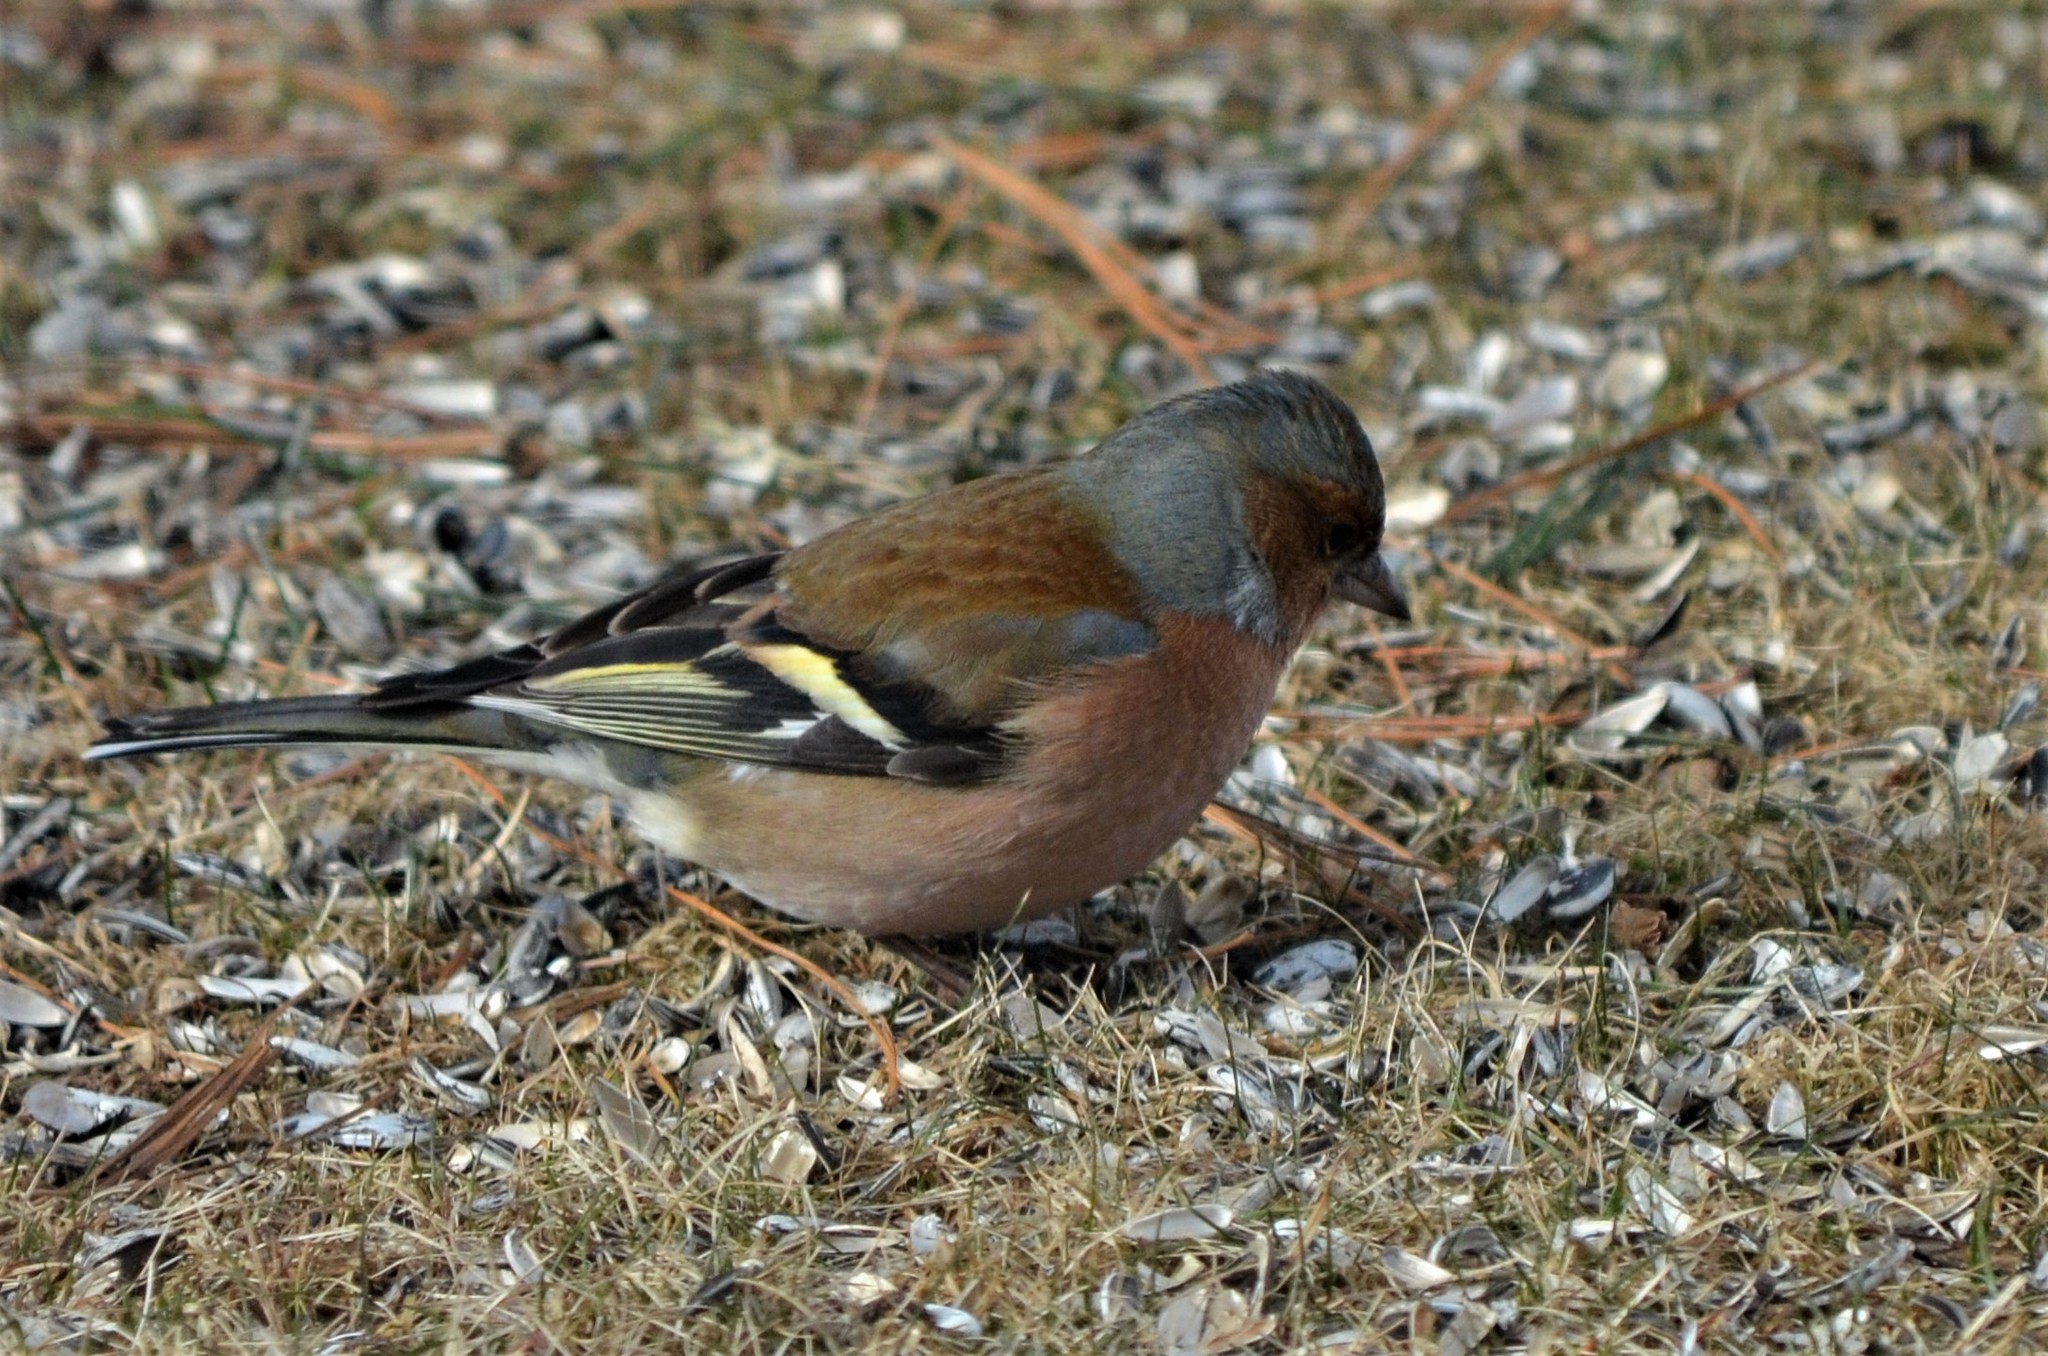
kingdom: Animalia
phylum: Chordata
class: Aves
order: Passeriformes
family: Fringillidae
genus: Fringilla
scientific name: Fringilla coelebs
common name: Common chaffinch
